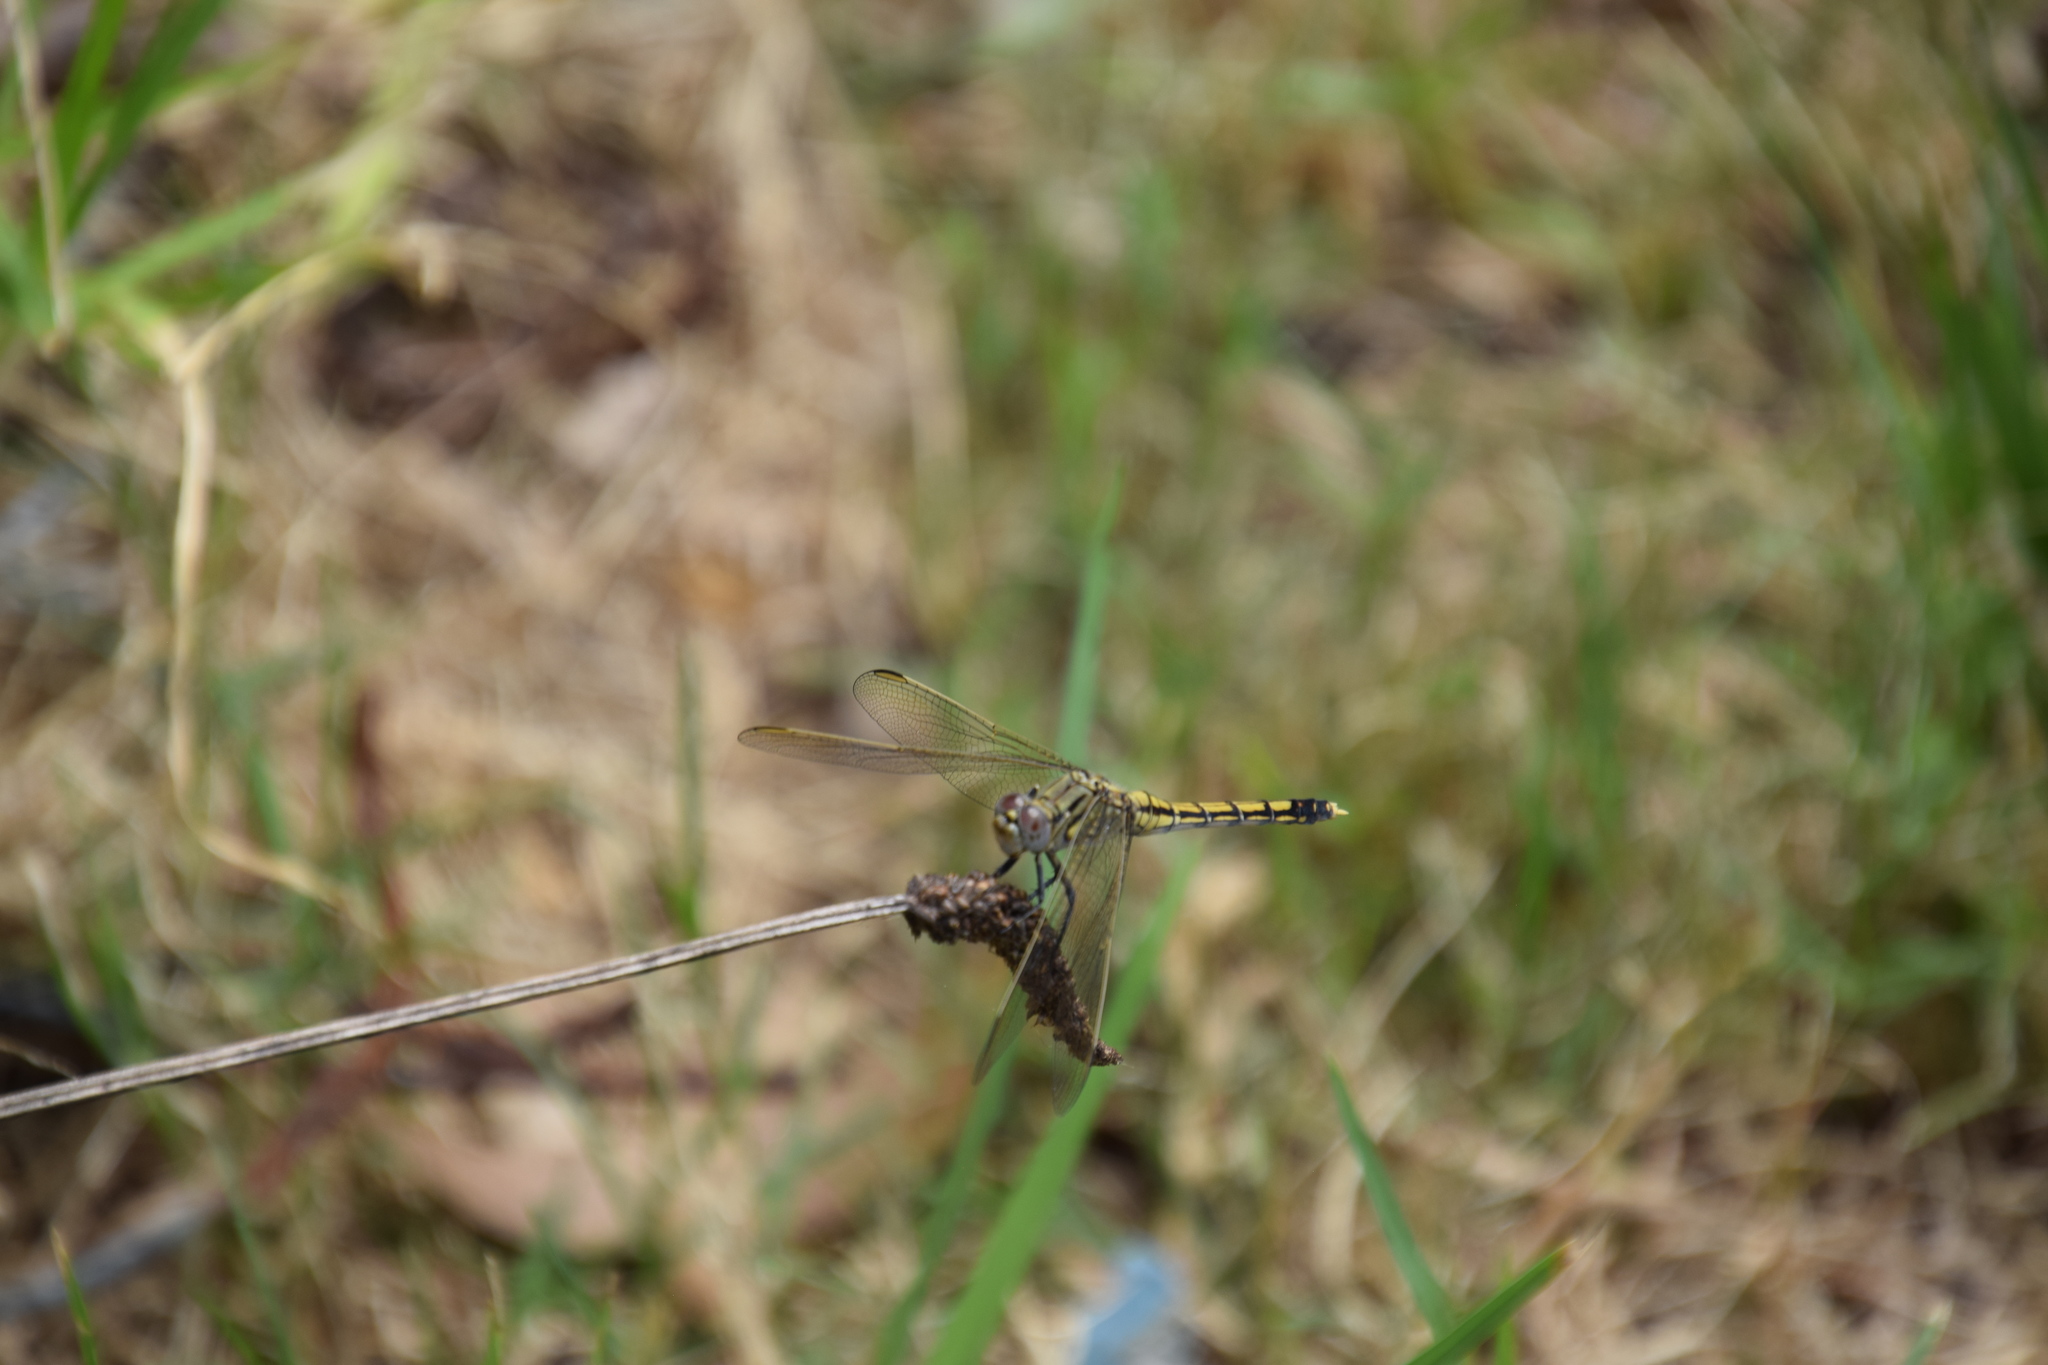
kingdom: Animalia
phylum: Arthropoda
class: Insecta
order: Odonata
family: Libellulidae
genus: Orthetrum
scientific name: Orthetrum caledonicum
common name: Blue skimmer
